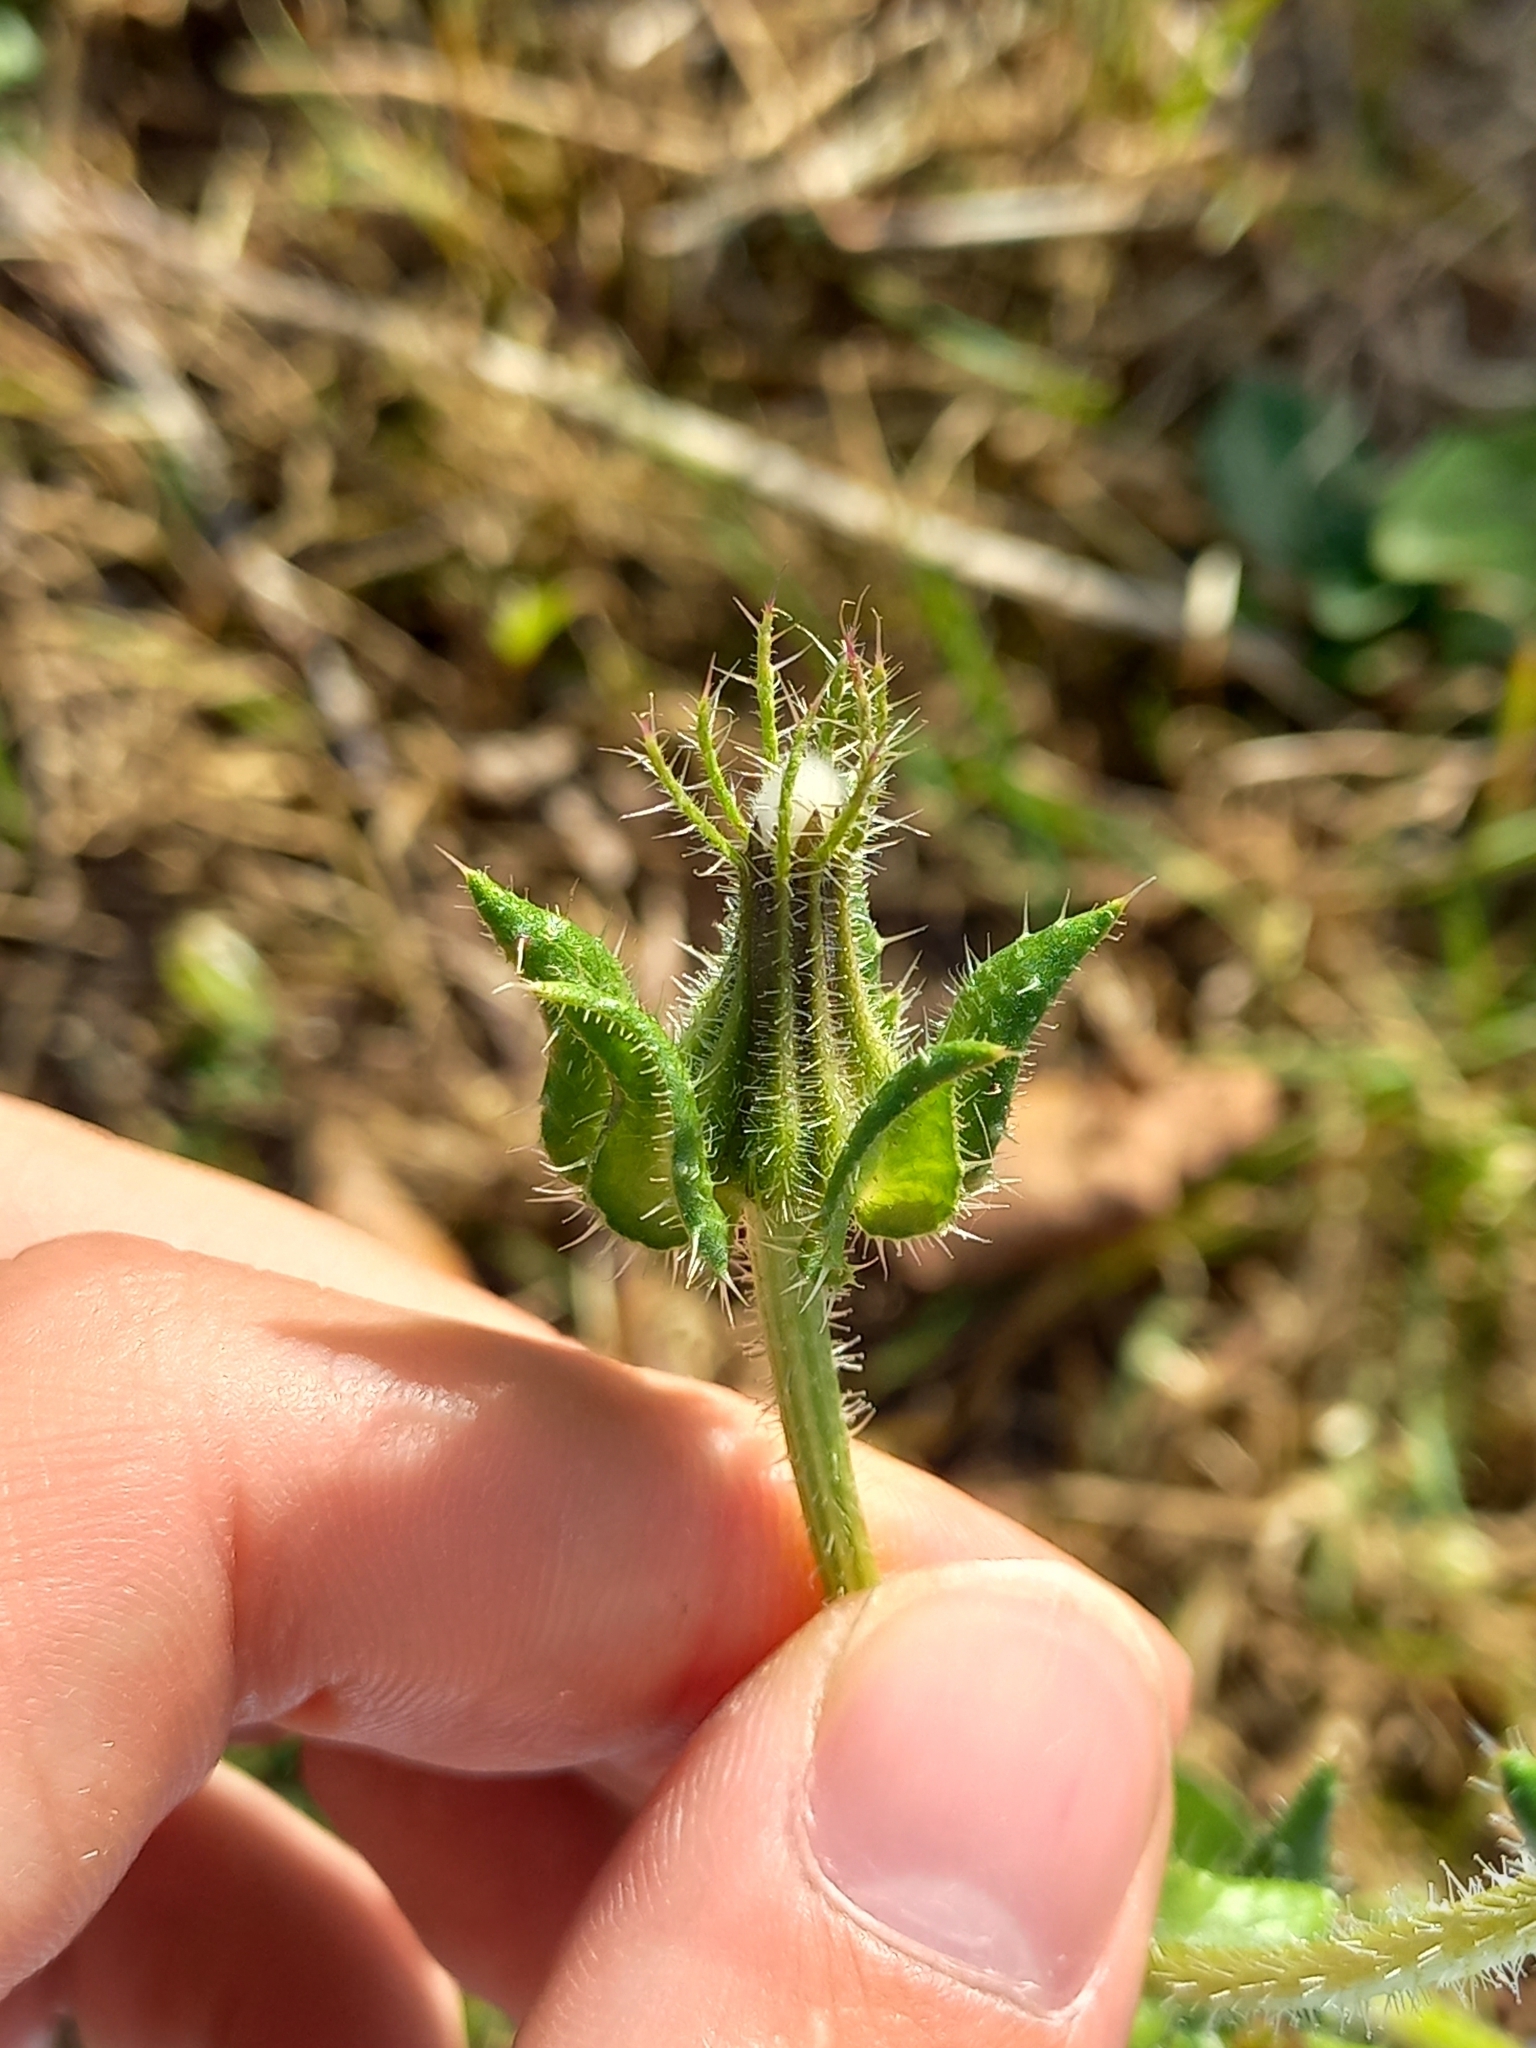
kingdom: Plantae
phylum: Tracheophyta
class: Magnoliopsida
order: Asterales
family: Asteraceae
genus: Helminthotheca
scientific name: Helminthotheca echioides
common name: Ox-tongue
